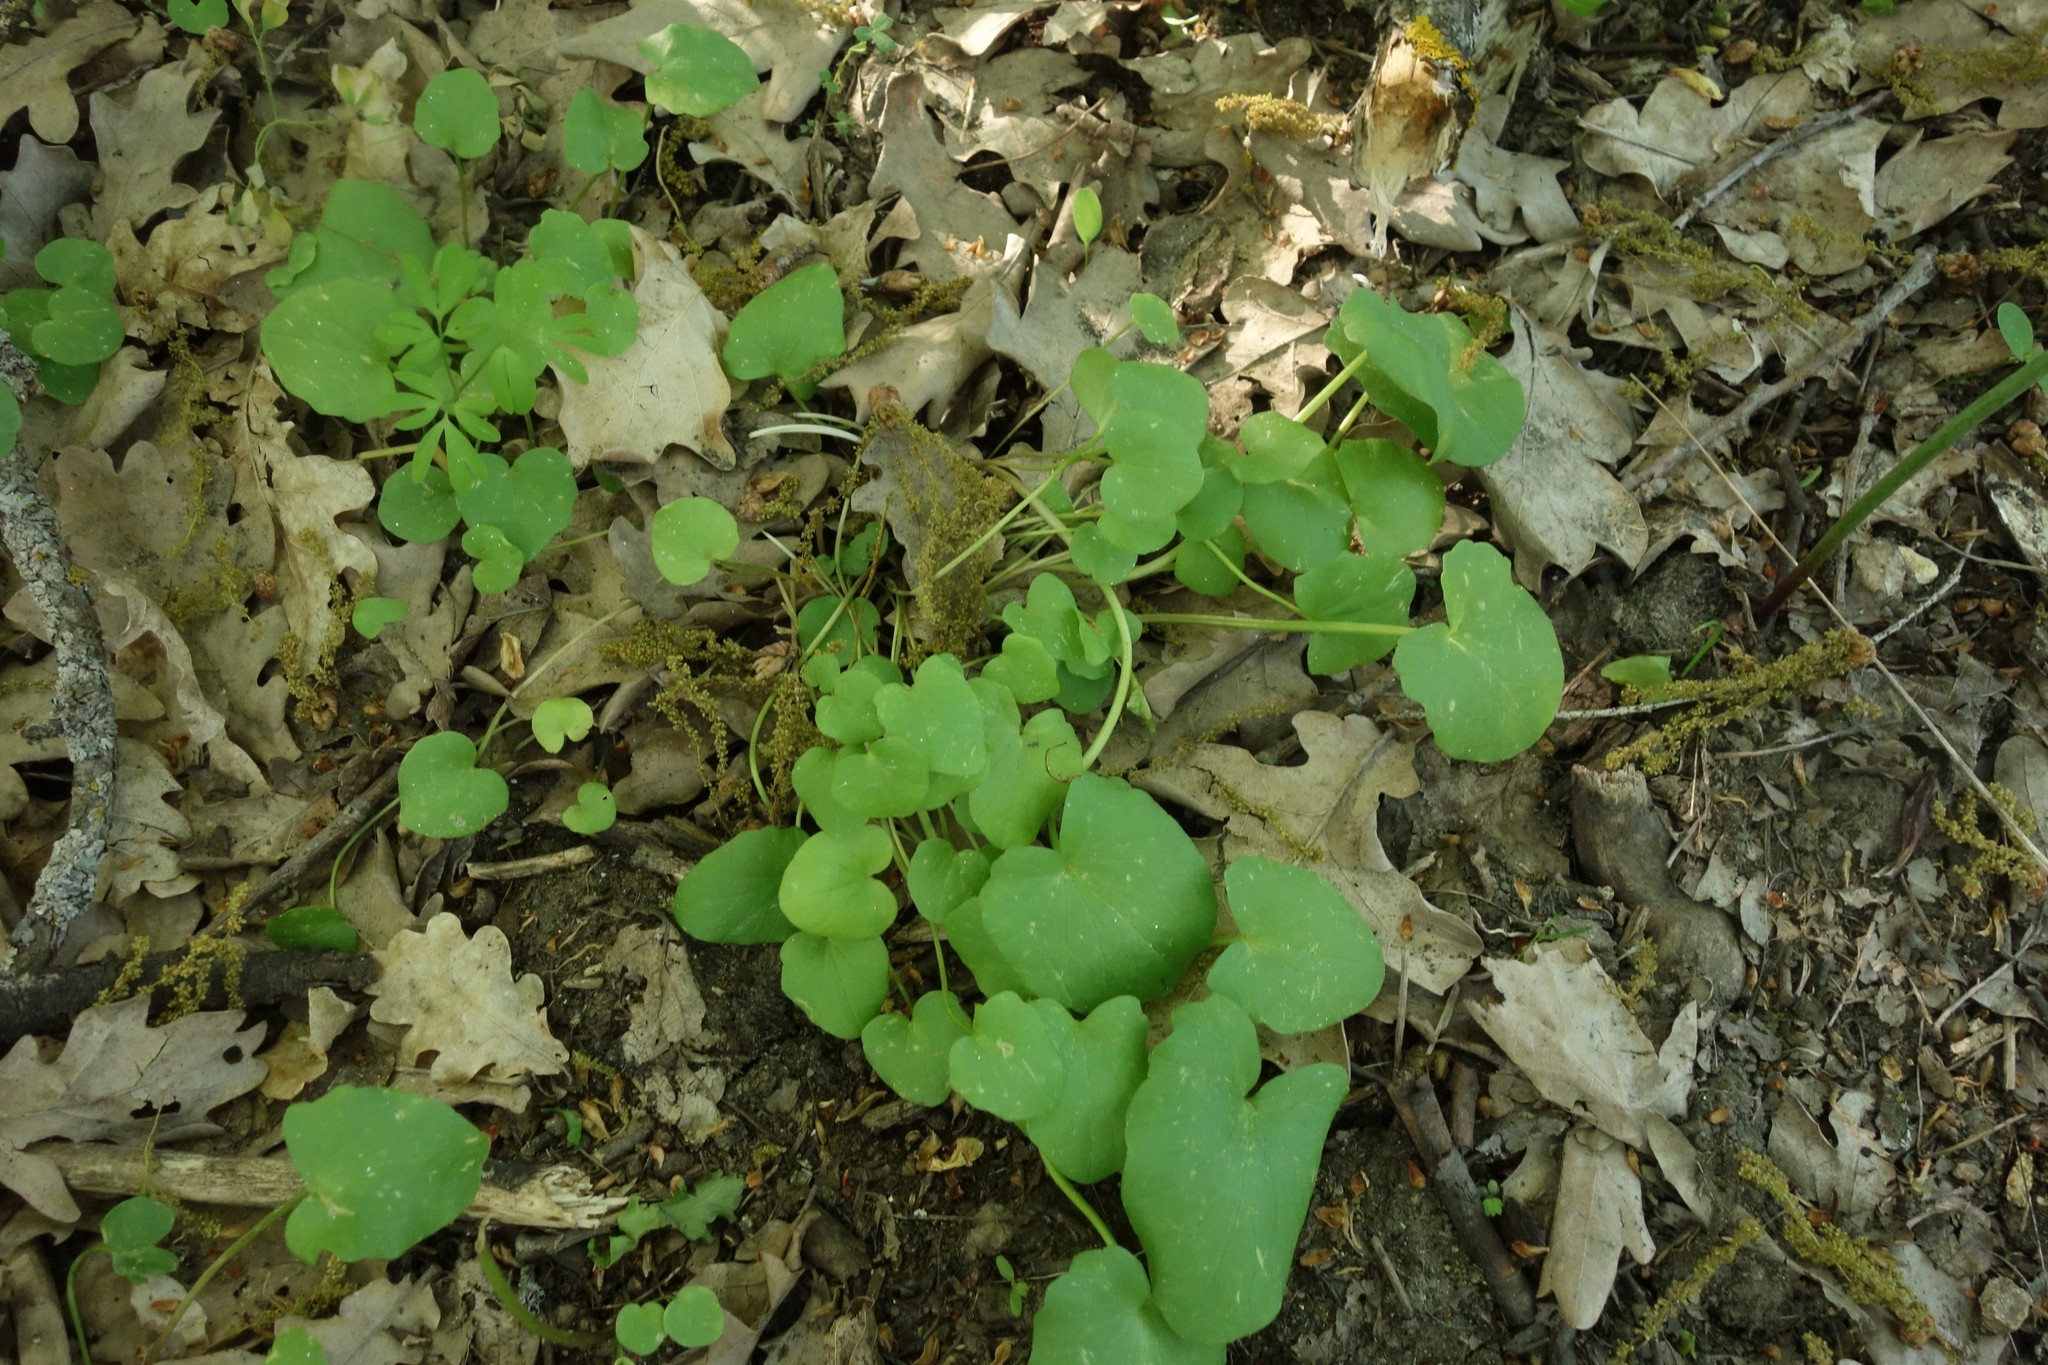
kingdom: Plantae
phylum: Tracheophyta
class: Magnoliopsida
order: Ranunculales
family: Ranunculaceae
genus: Ficaria
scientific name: Ficaria verna
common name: Lesser celandine
